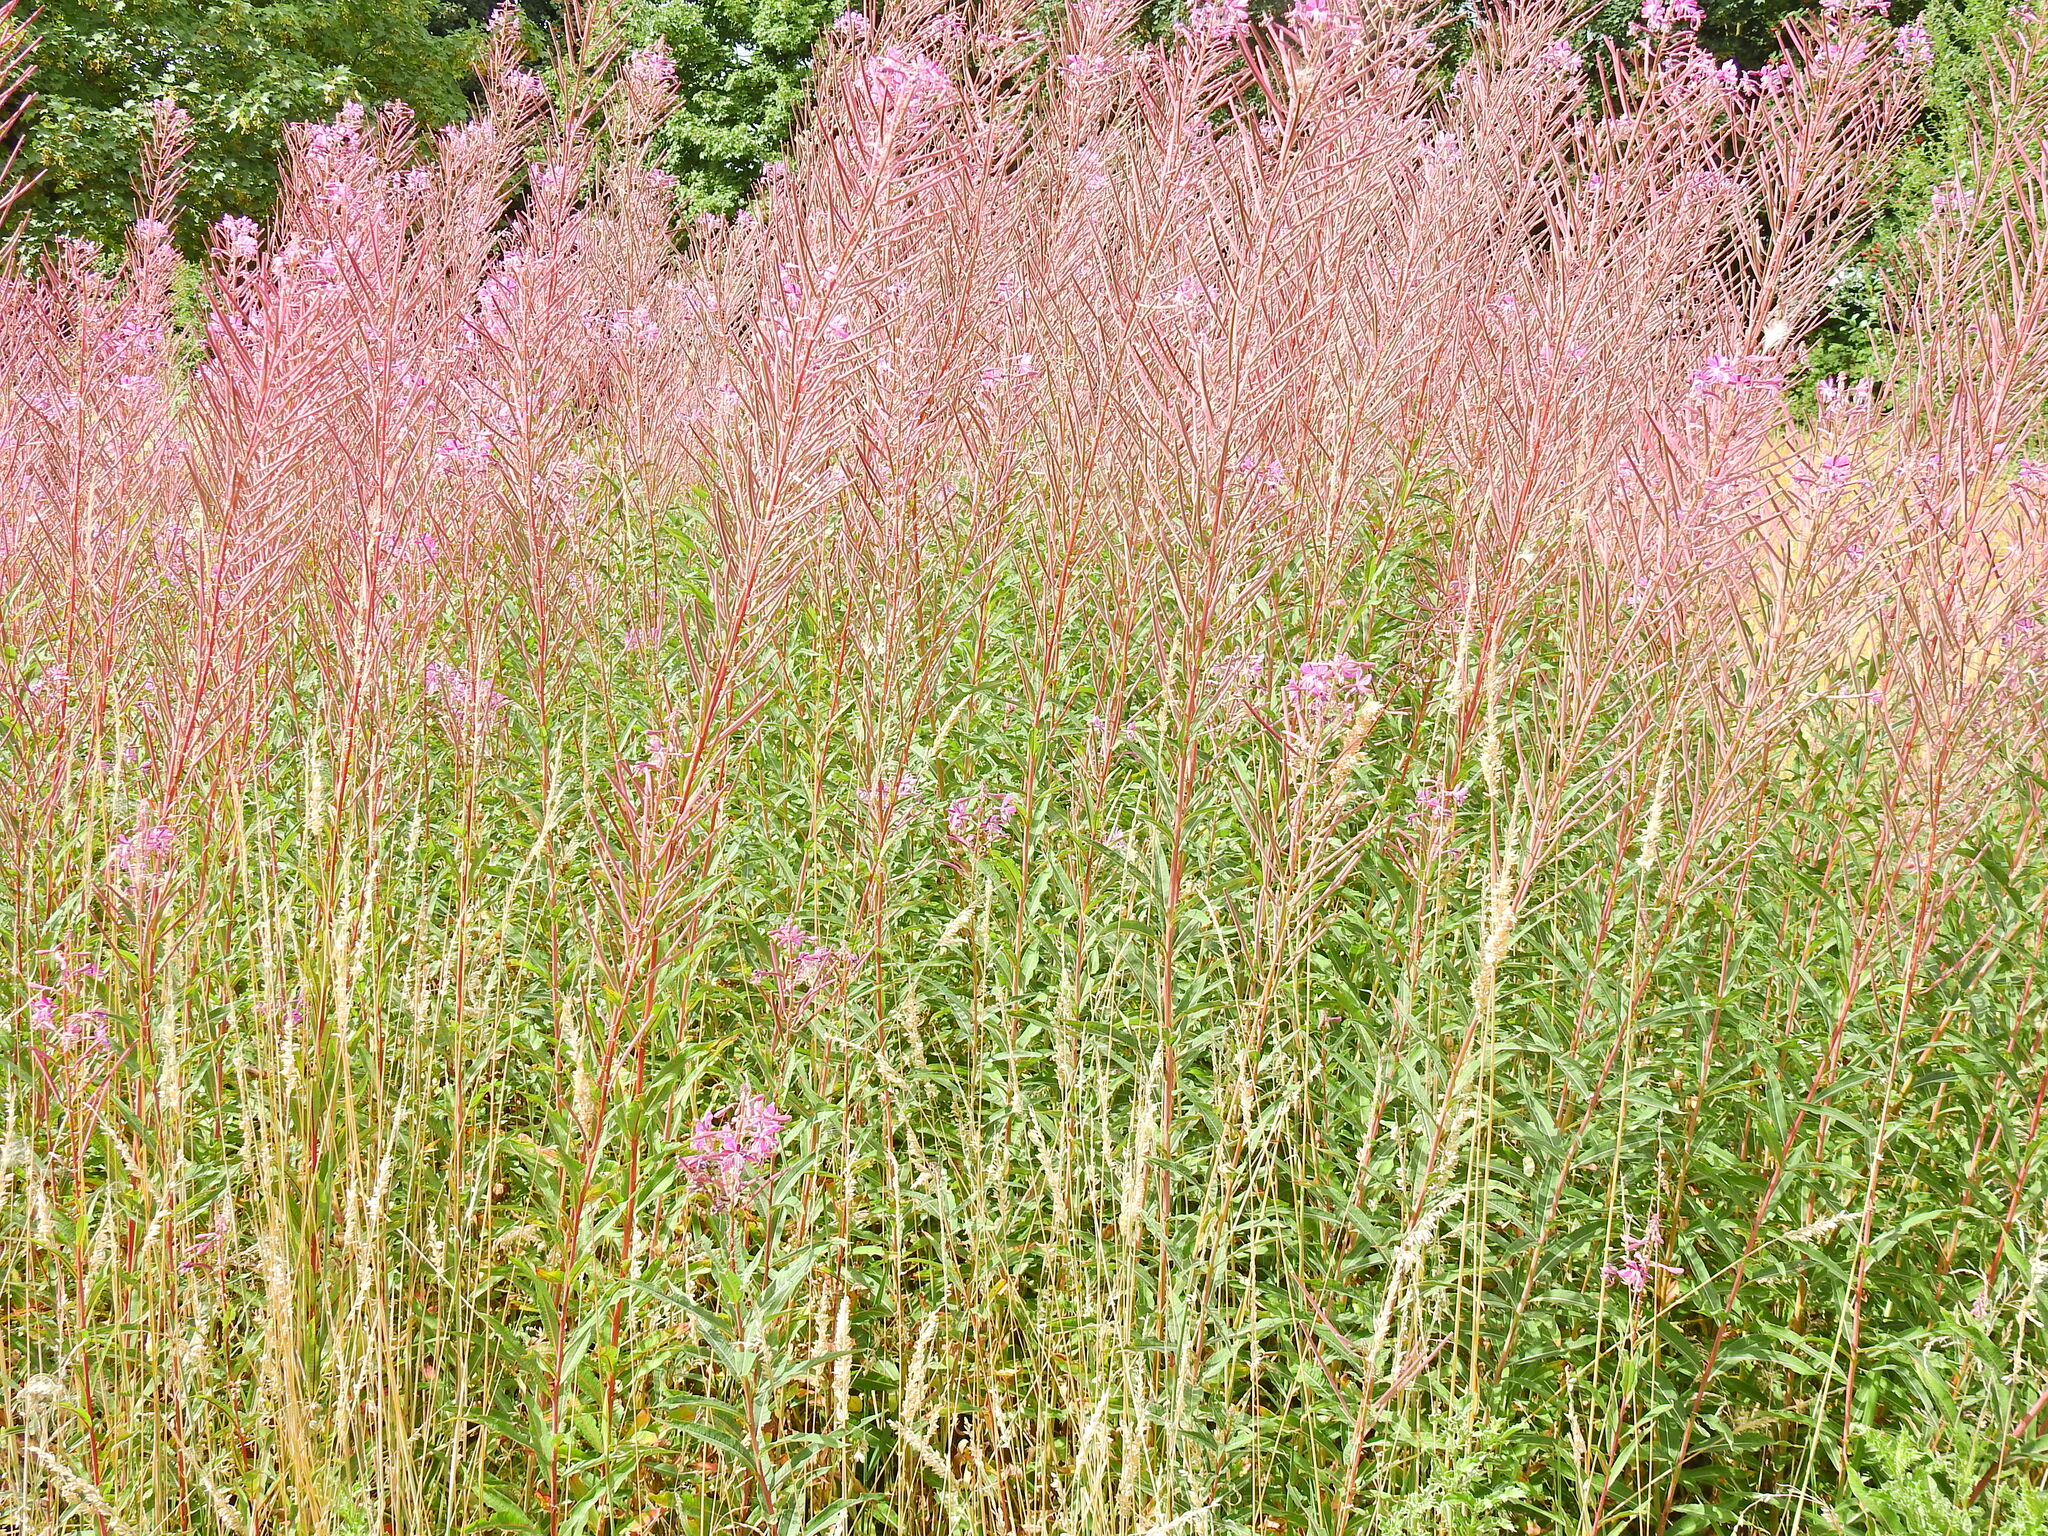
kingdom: Plantae
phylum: Tracheophyta
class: Magnoliopsida
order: Myrtales
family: Onagraceae
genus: Chamaenerion
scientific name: Chamaenerion angustifolium
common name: Fireweed
